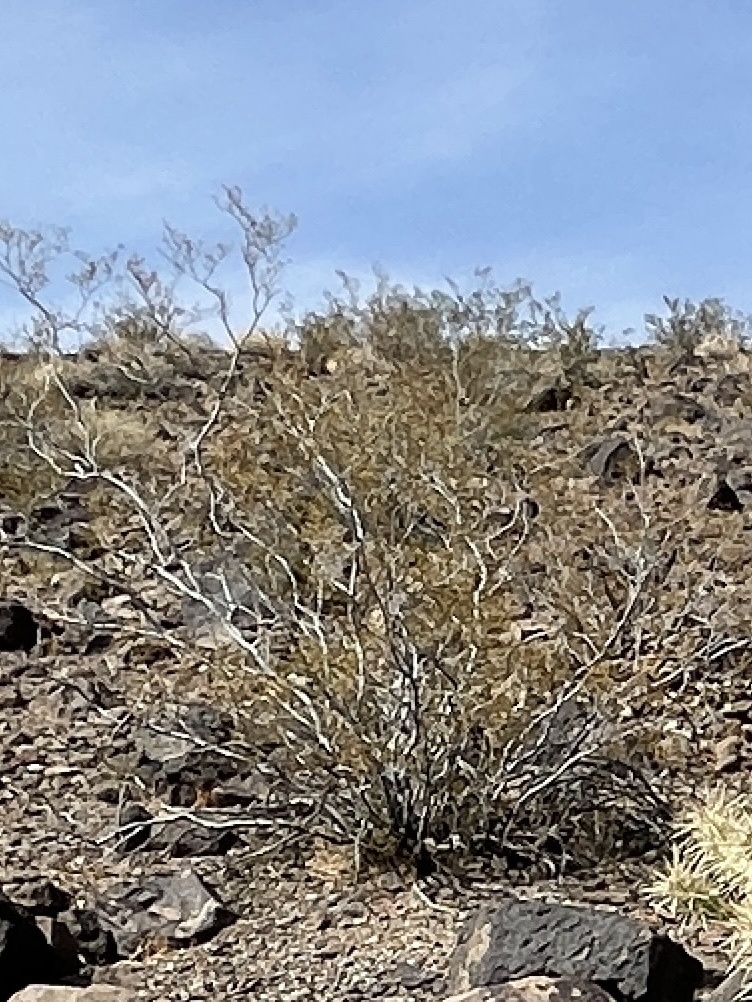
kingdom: Plantae
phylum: Tracheophyta
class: Magnoliopsida
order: Zygophyllales
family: Zygophyllaceae
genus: Larrea
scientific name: Larrea tridentata
